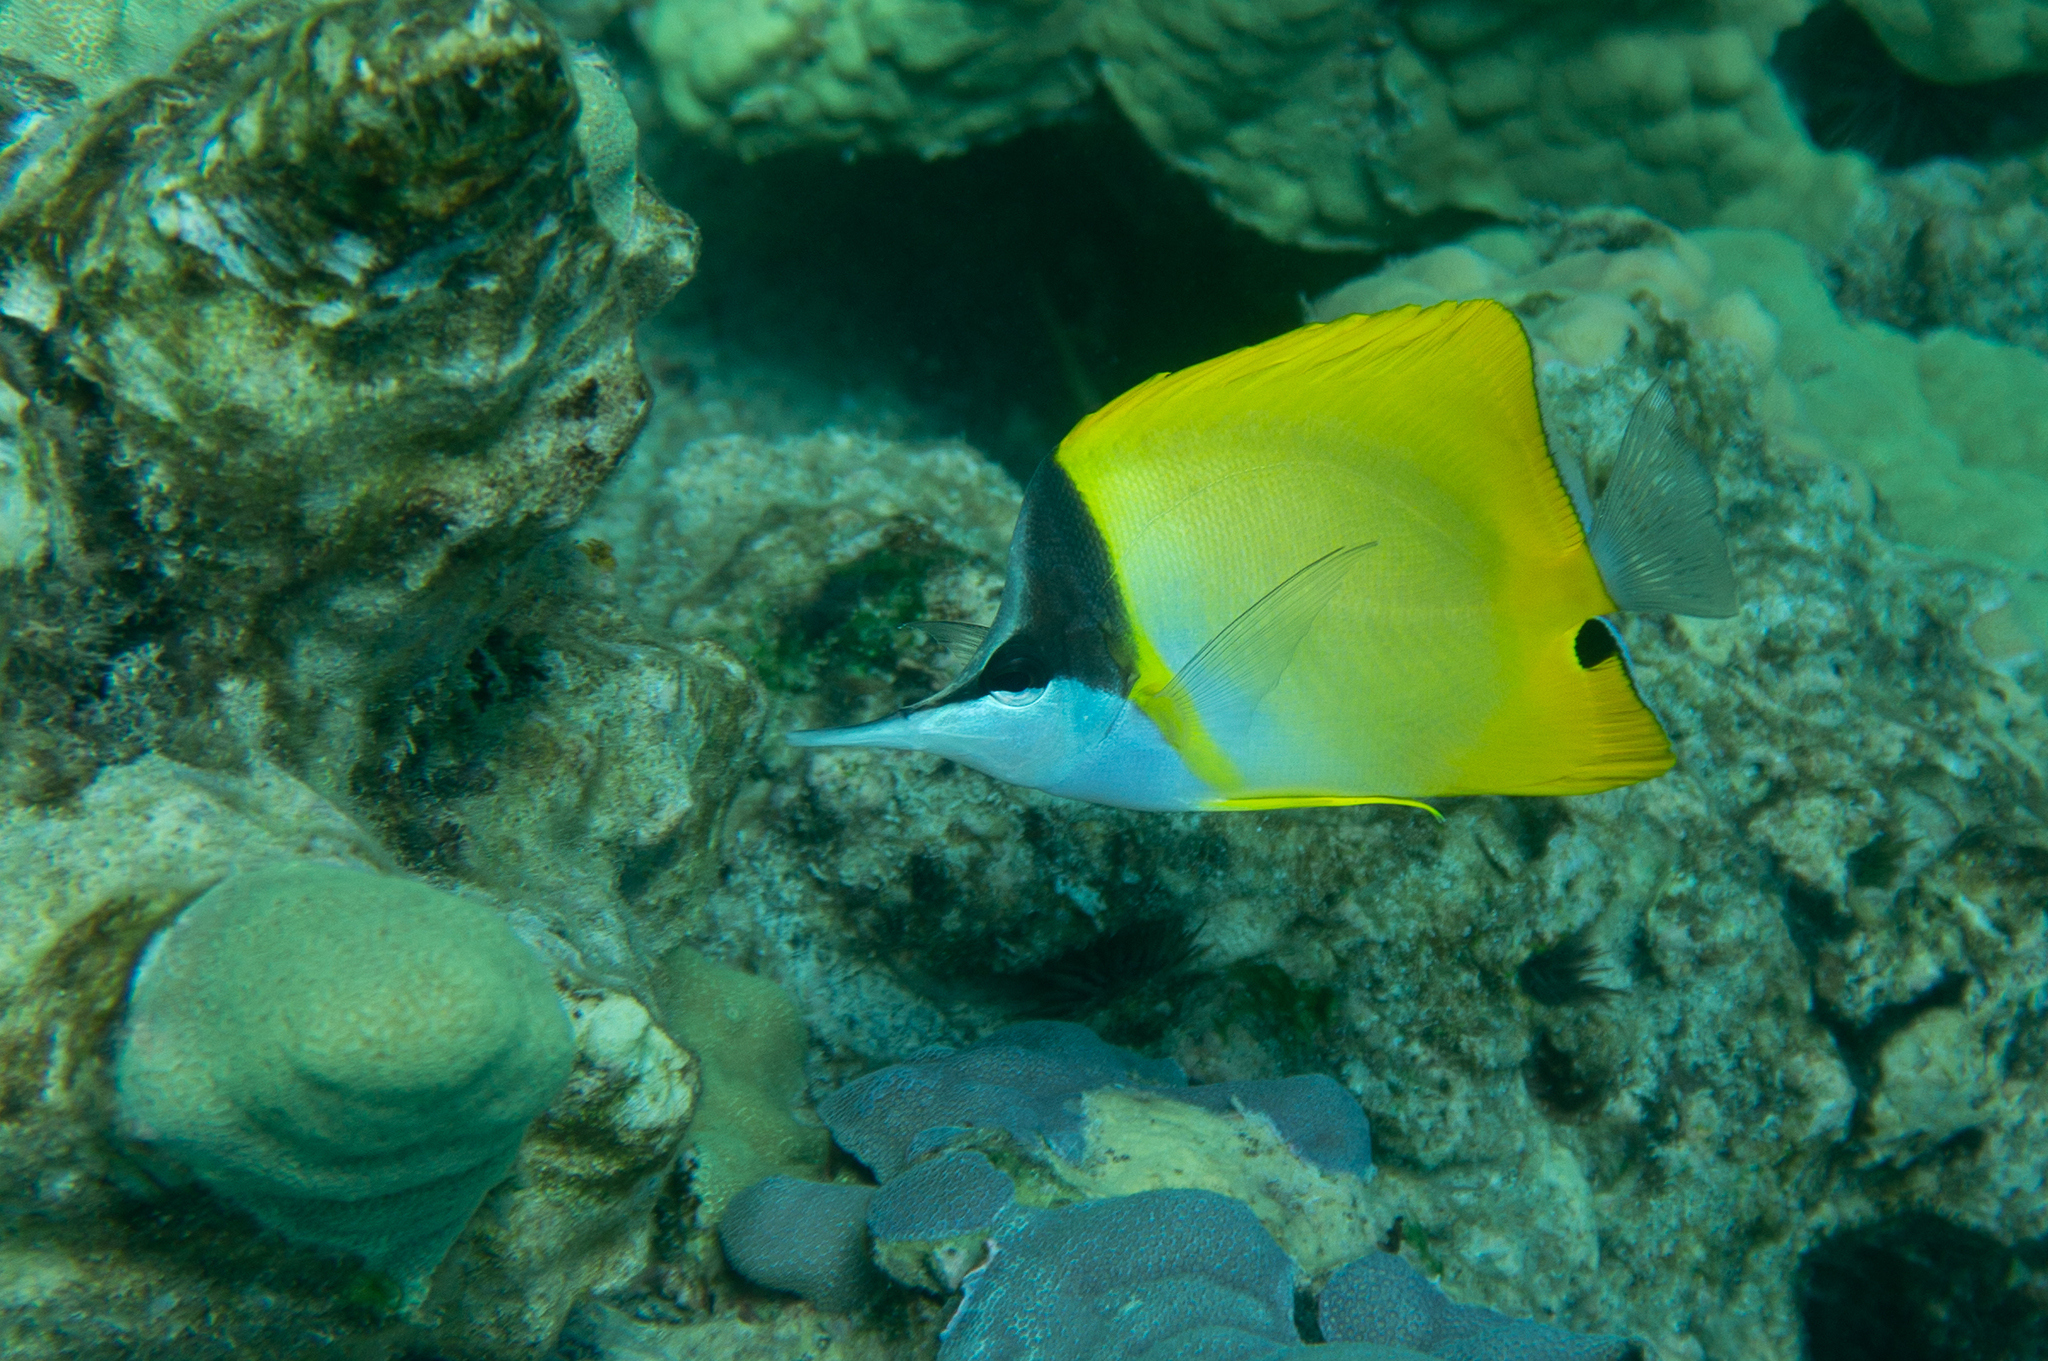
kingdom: Animalia
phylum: Chordata
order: Perciformes
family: Chaetodontidae
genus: Forcipiger
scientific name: Forcipiger flavissimus
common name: Forcepsfish
